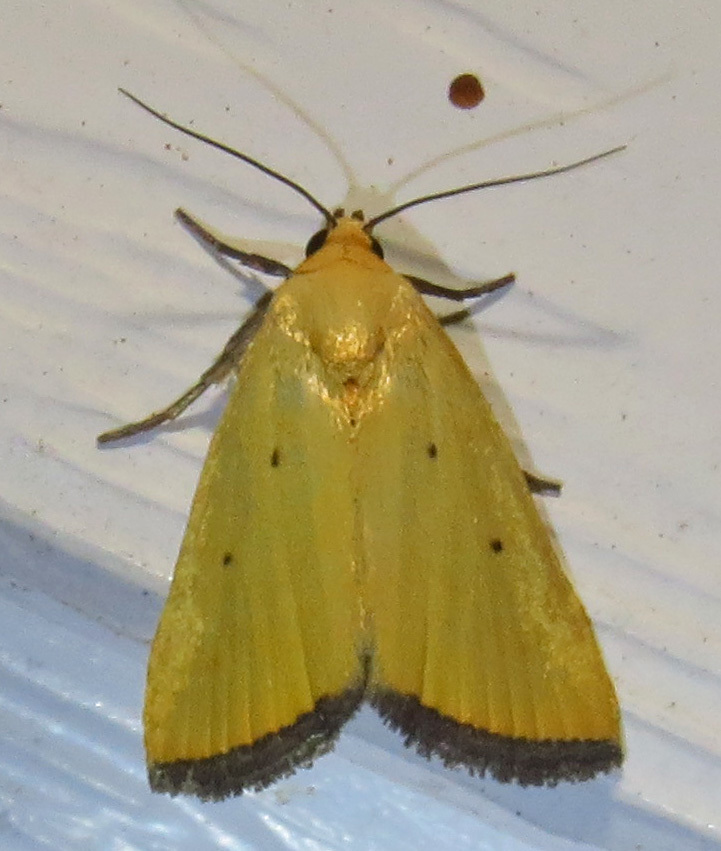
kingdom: Animalia
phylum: Arthropoda
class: Insecta
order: Lepidoptera
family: Noctuidae
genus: Marimatha
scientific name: Marimatha nigrofimbria
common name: Black-bordered lemon moth
